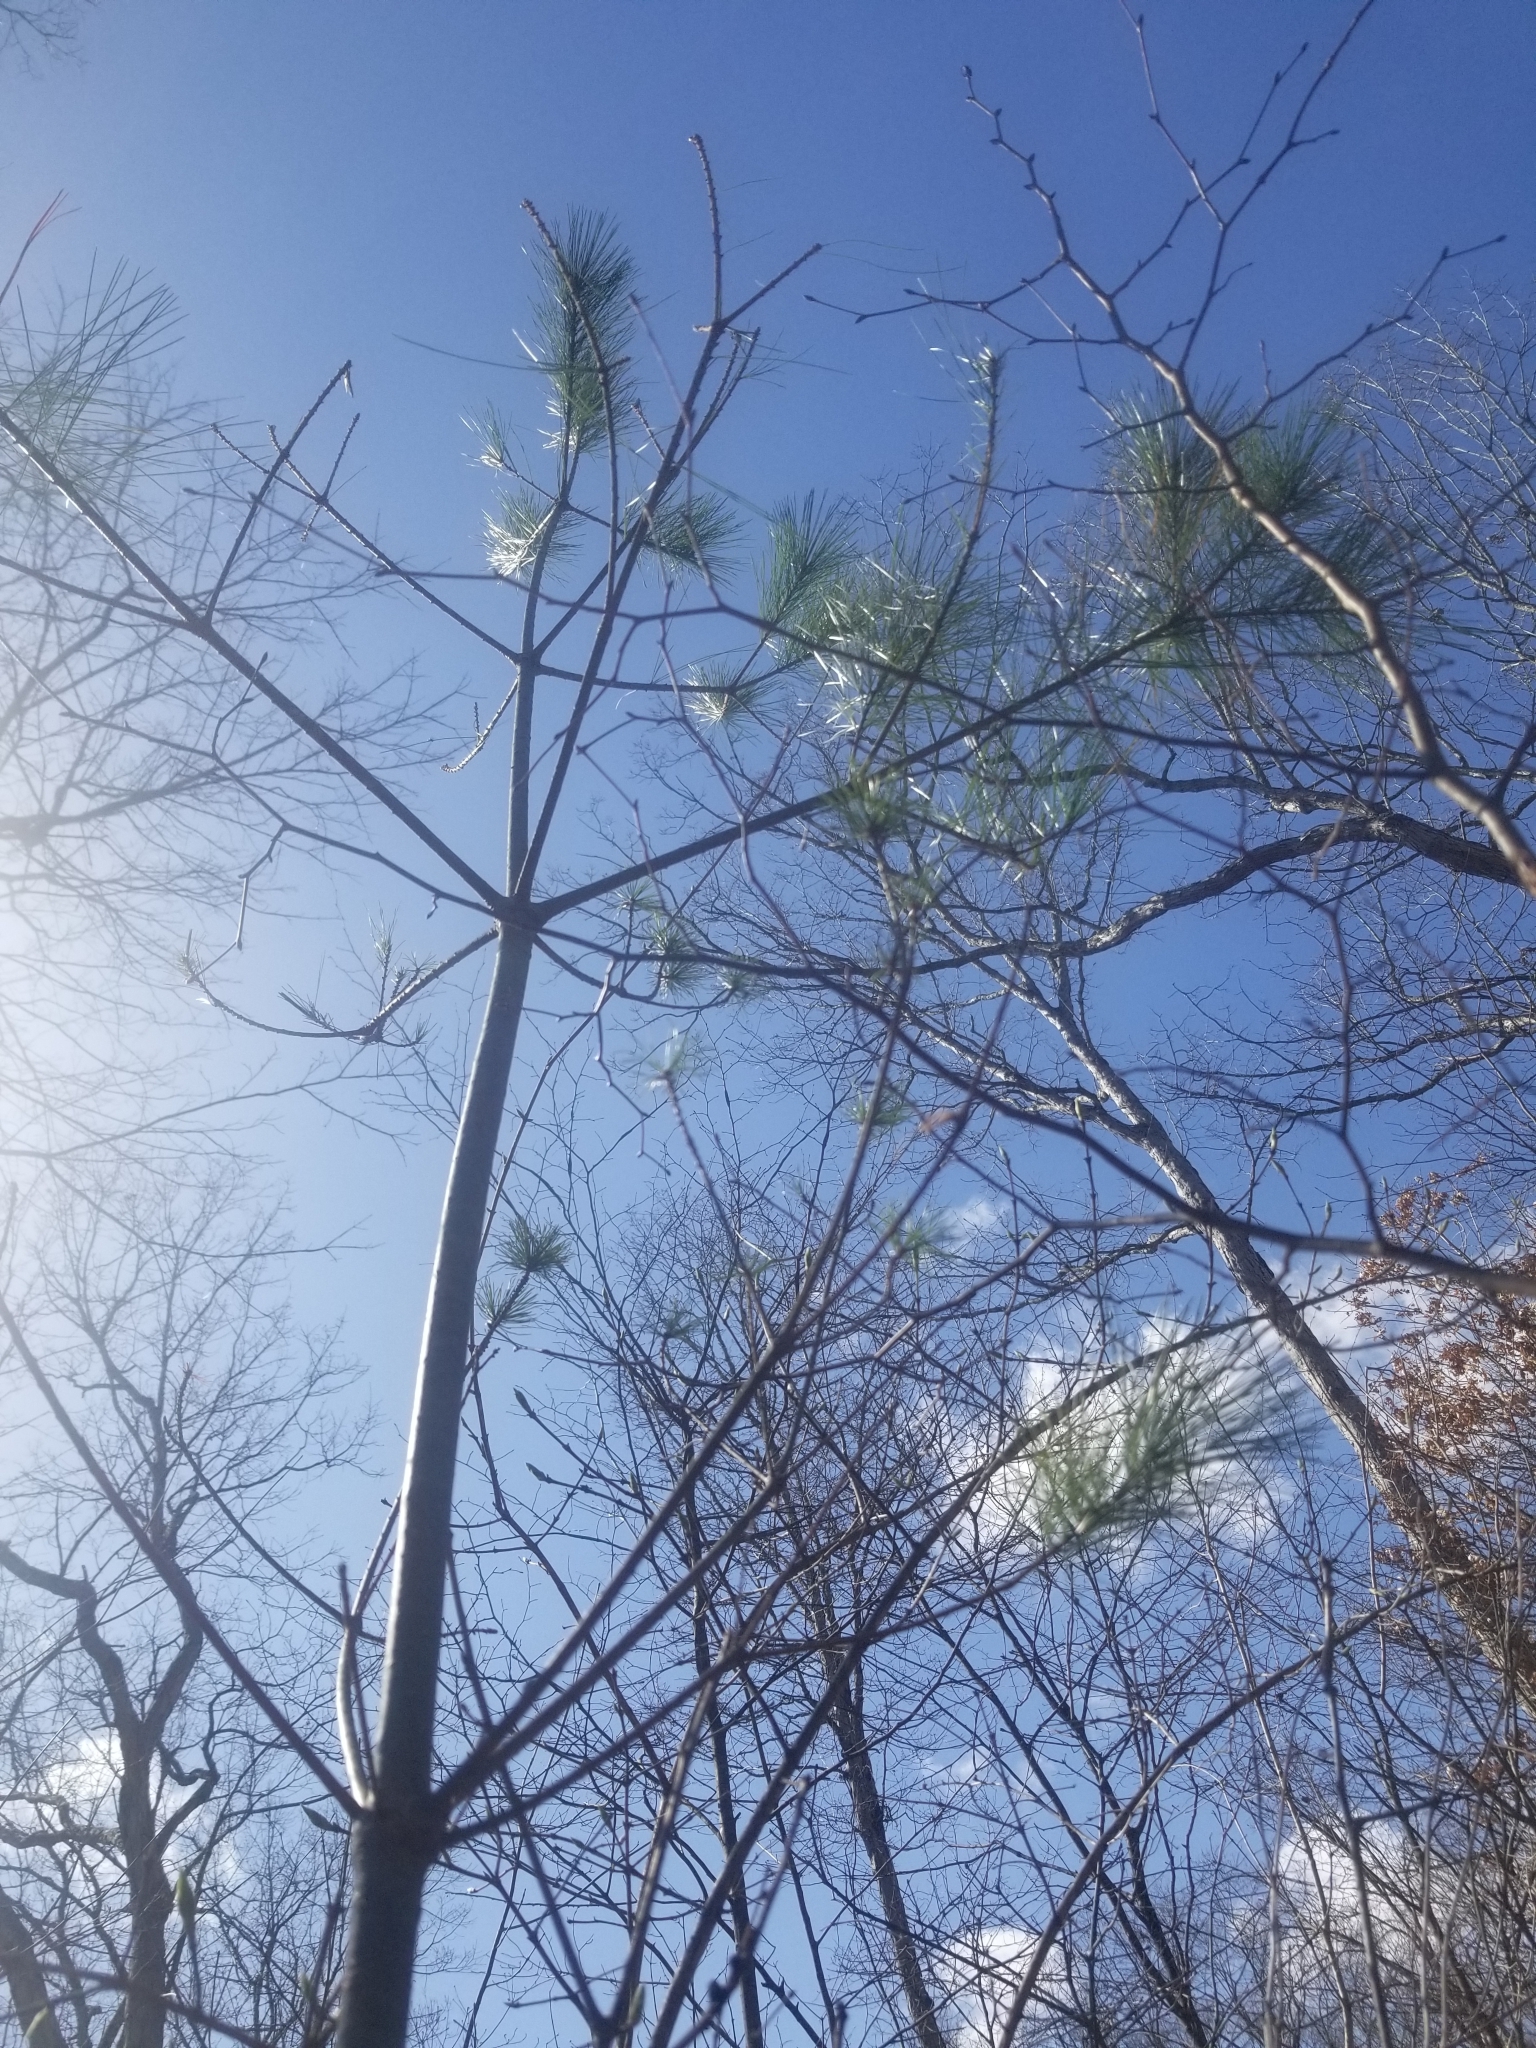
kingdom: Plantae
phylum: Tracheophyta
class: Pinopsida
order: Pinales
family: Pinaceae
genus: Pinus
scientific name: Pinus strobus
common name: Weymouth pine
